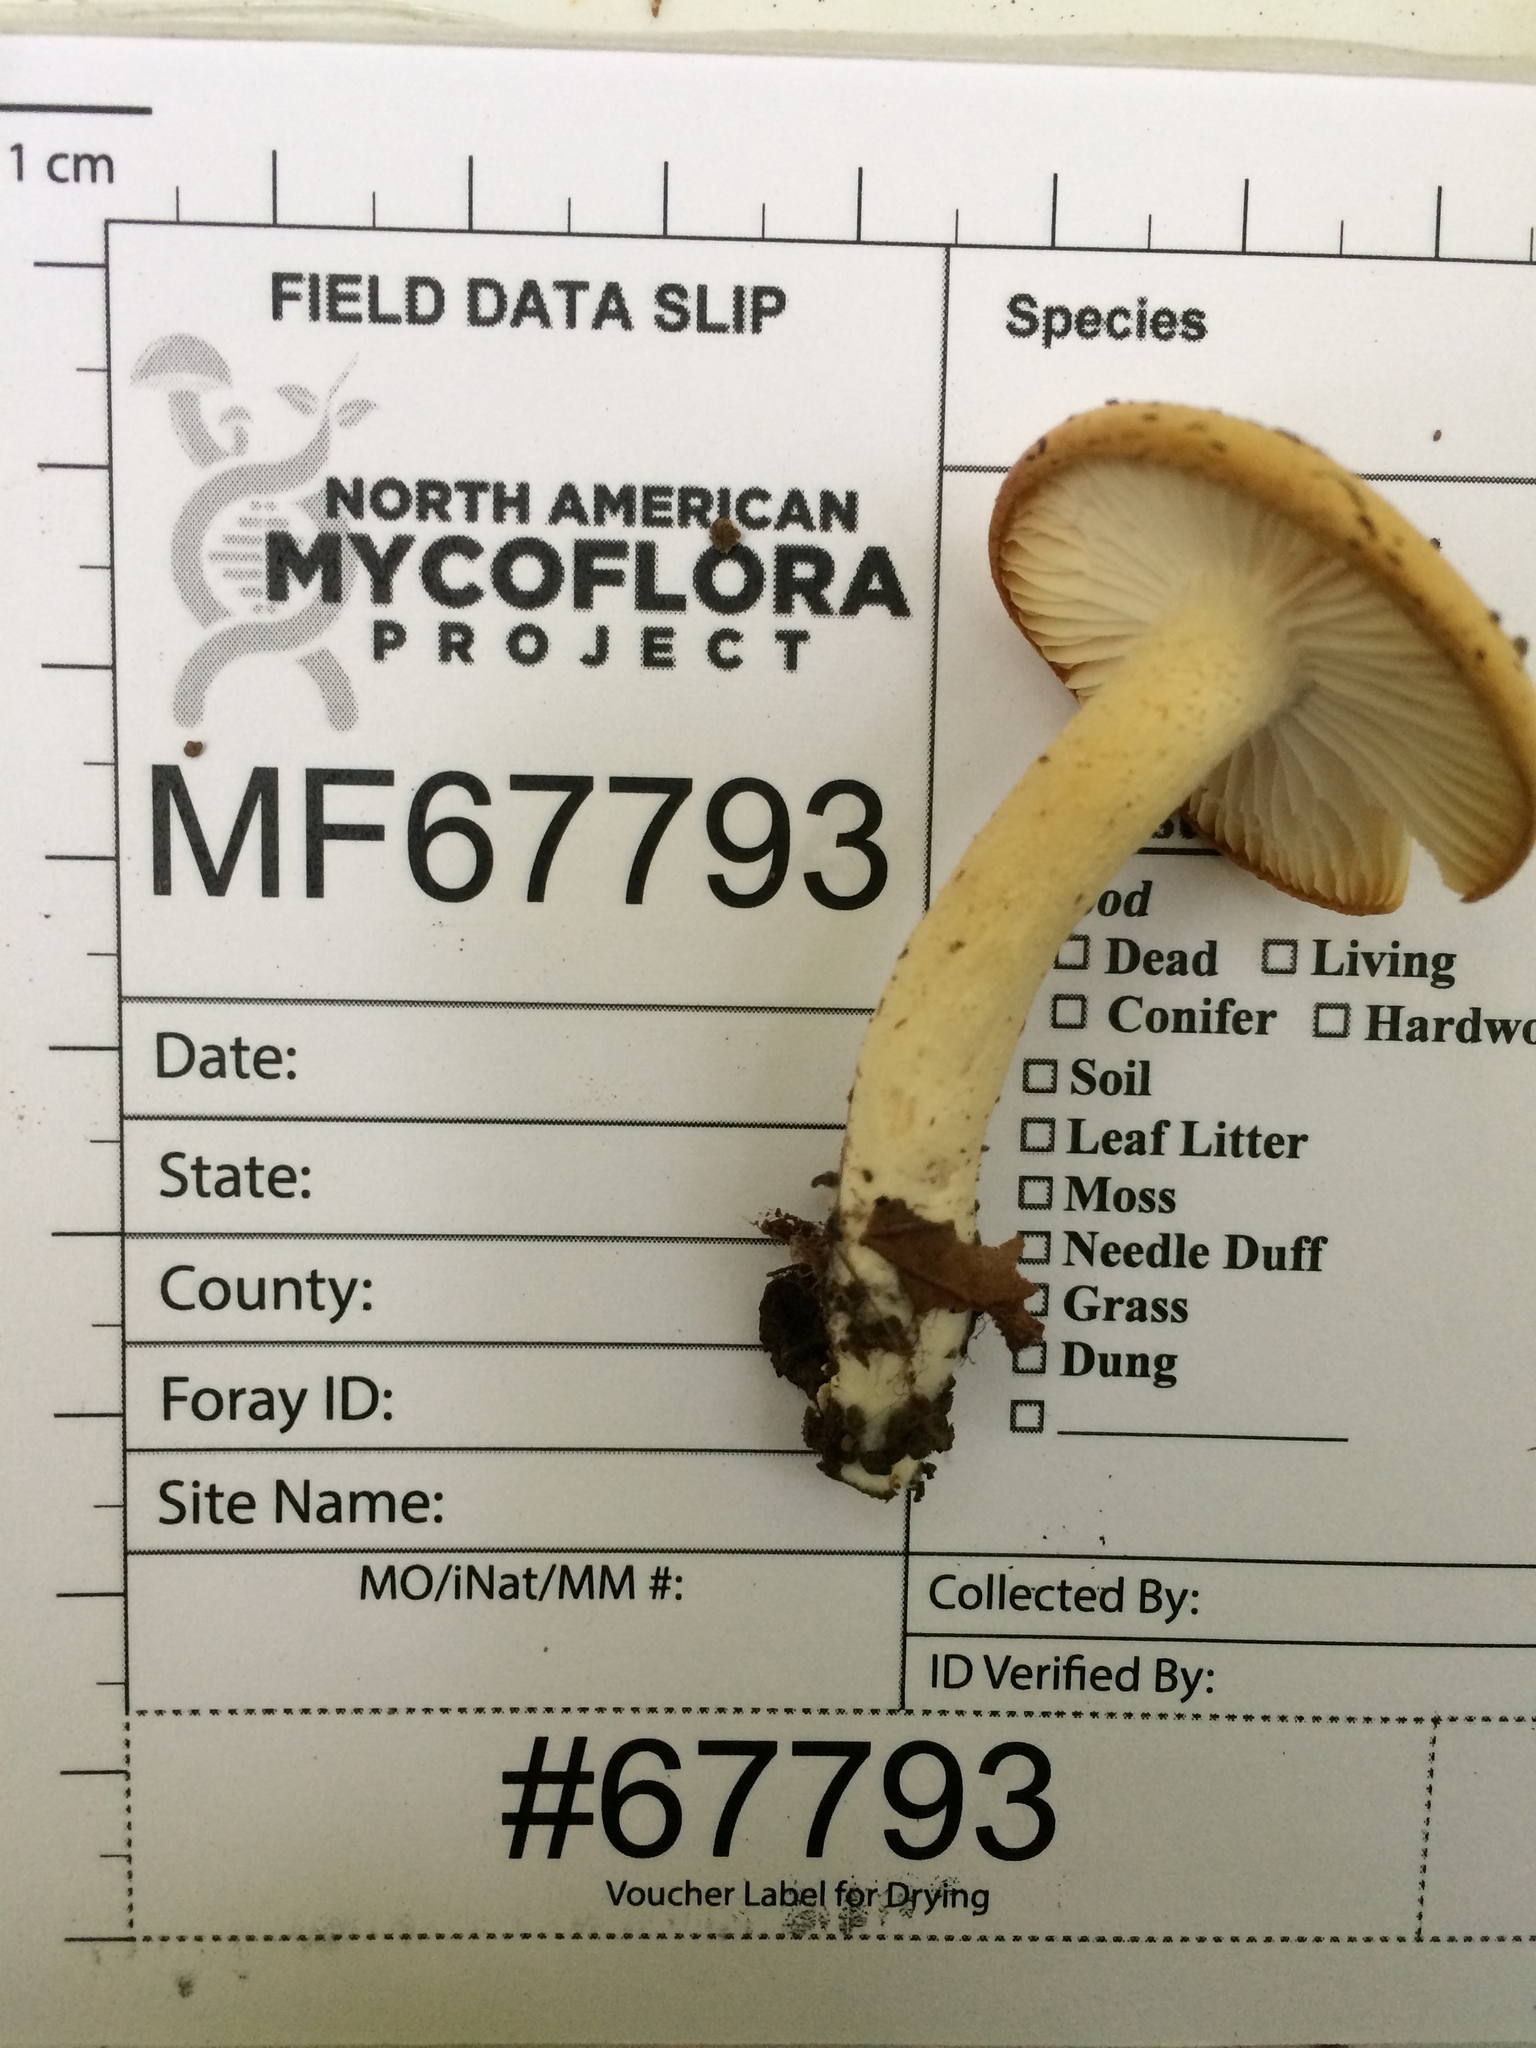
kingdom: Fungi
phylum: Basidiomycota
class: Agaricomycetes
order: Agaricales
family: Hygrophoraceae
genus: Hygrophorus
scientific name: Hygrophorus discoxanthus
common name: Yellowing woodwax
